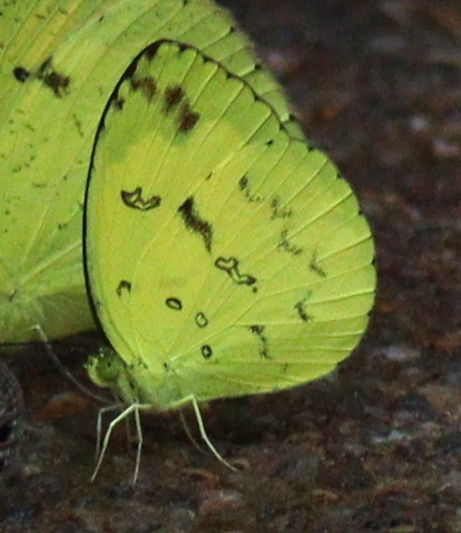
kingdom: Animalia
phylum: Arthropoda
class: Insecta
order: Lepidoptera
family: Pieridae
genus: Eurema
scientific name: Eurema andersoni
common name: One-spot yellow grass
